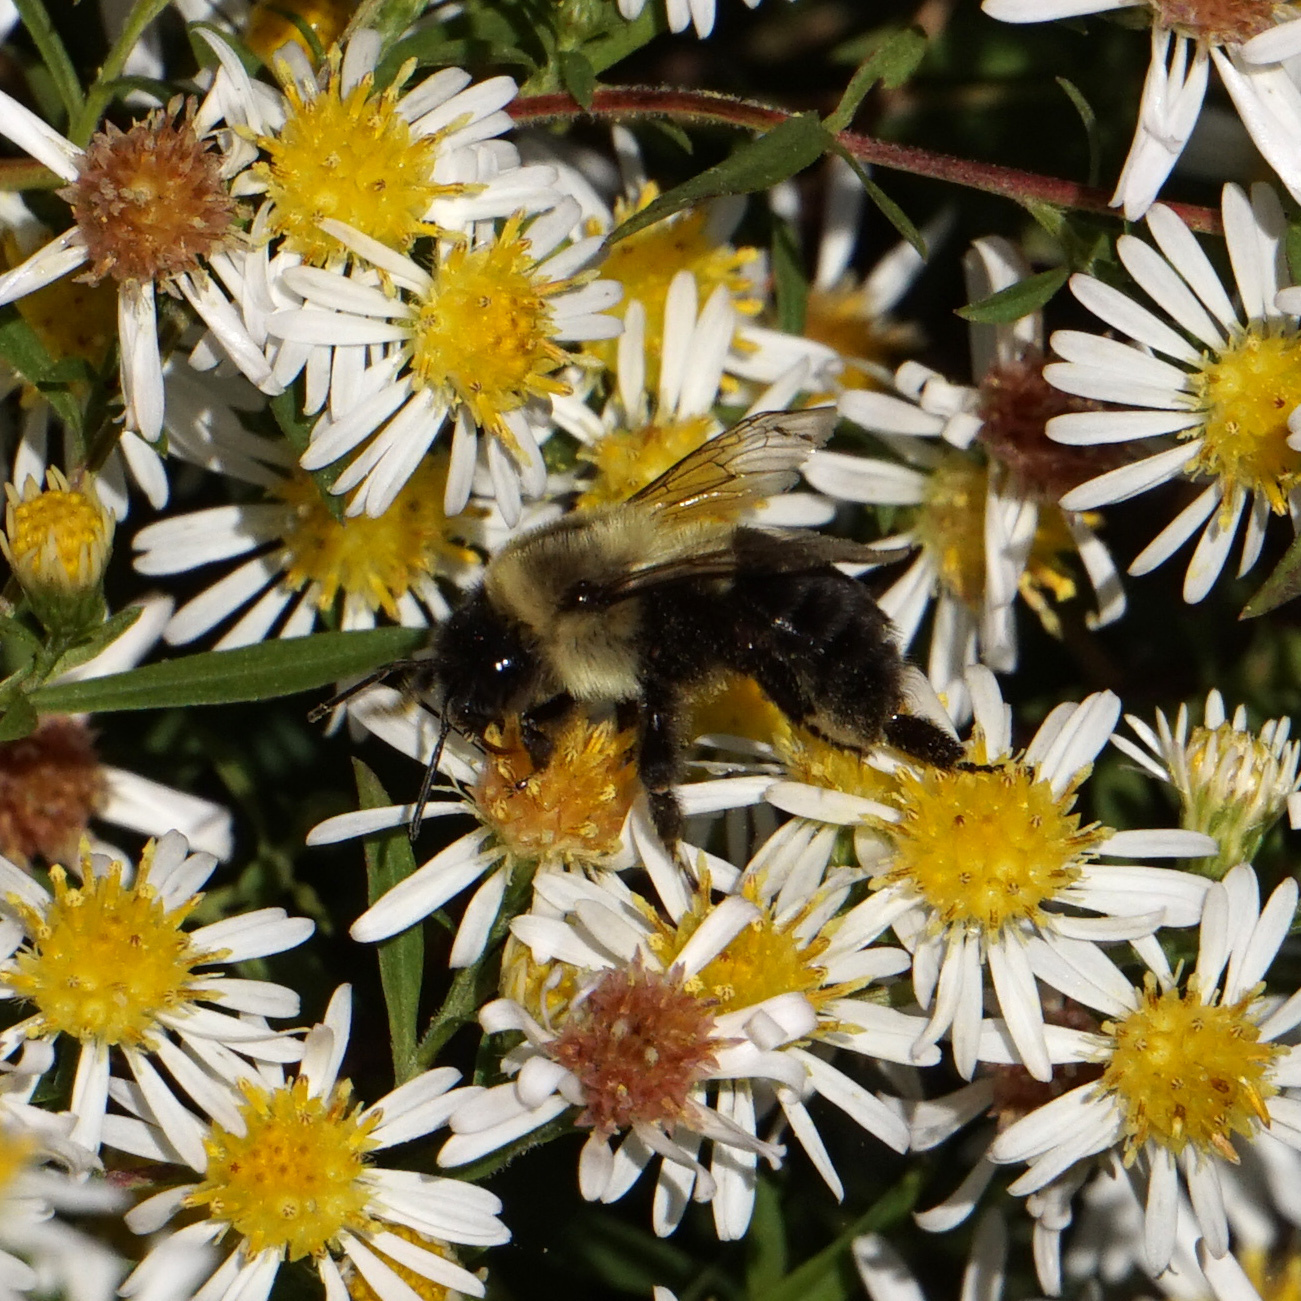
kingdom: Animalia
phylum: Arthropoda
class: Insecta
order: Hymenoptera
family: Apidae
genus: Bombus
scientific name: Bombus impatiens
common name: Common eastern bumble bee
